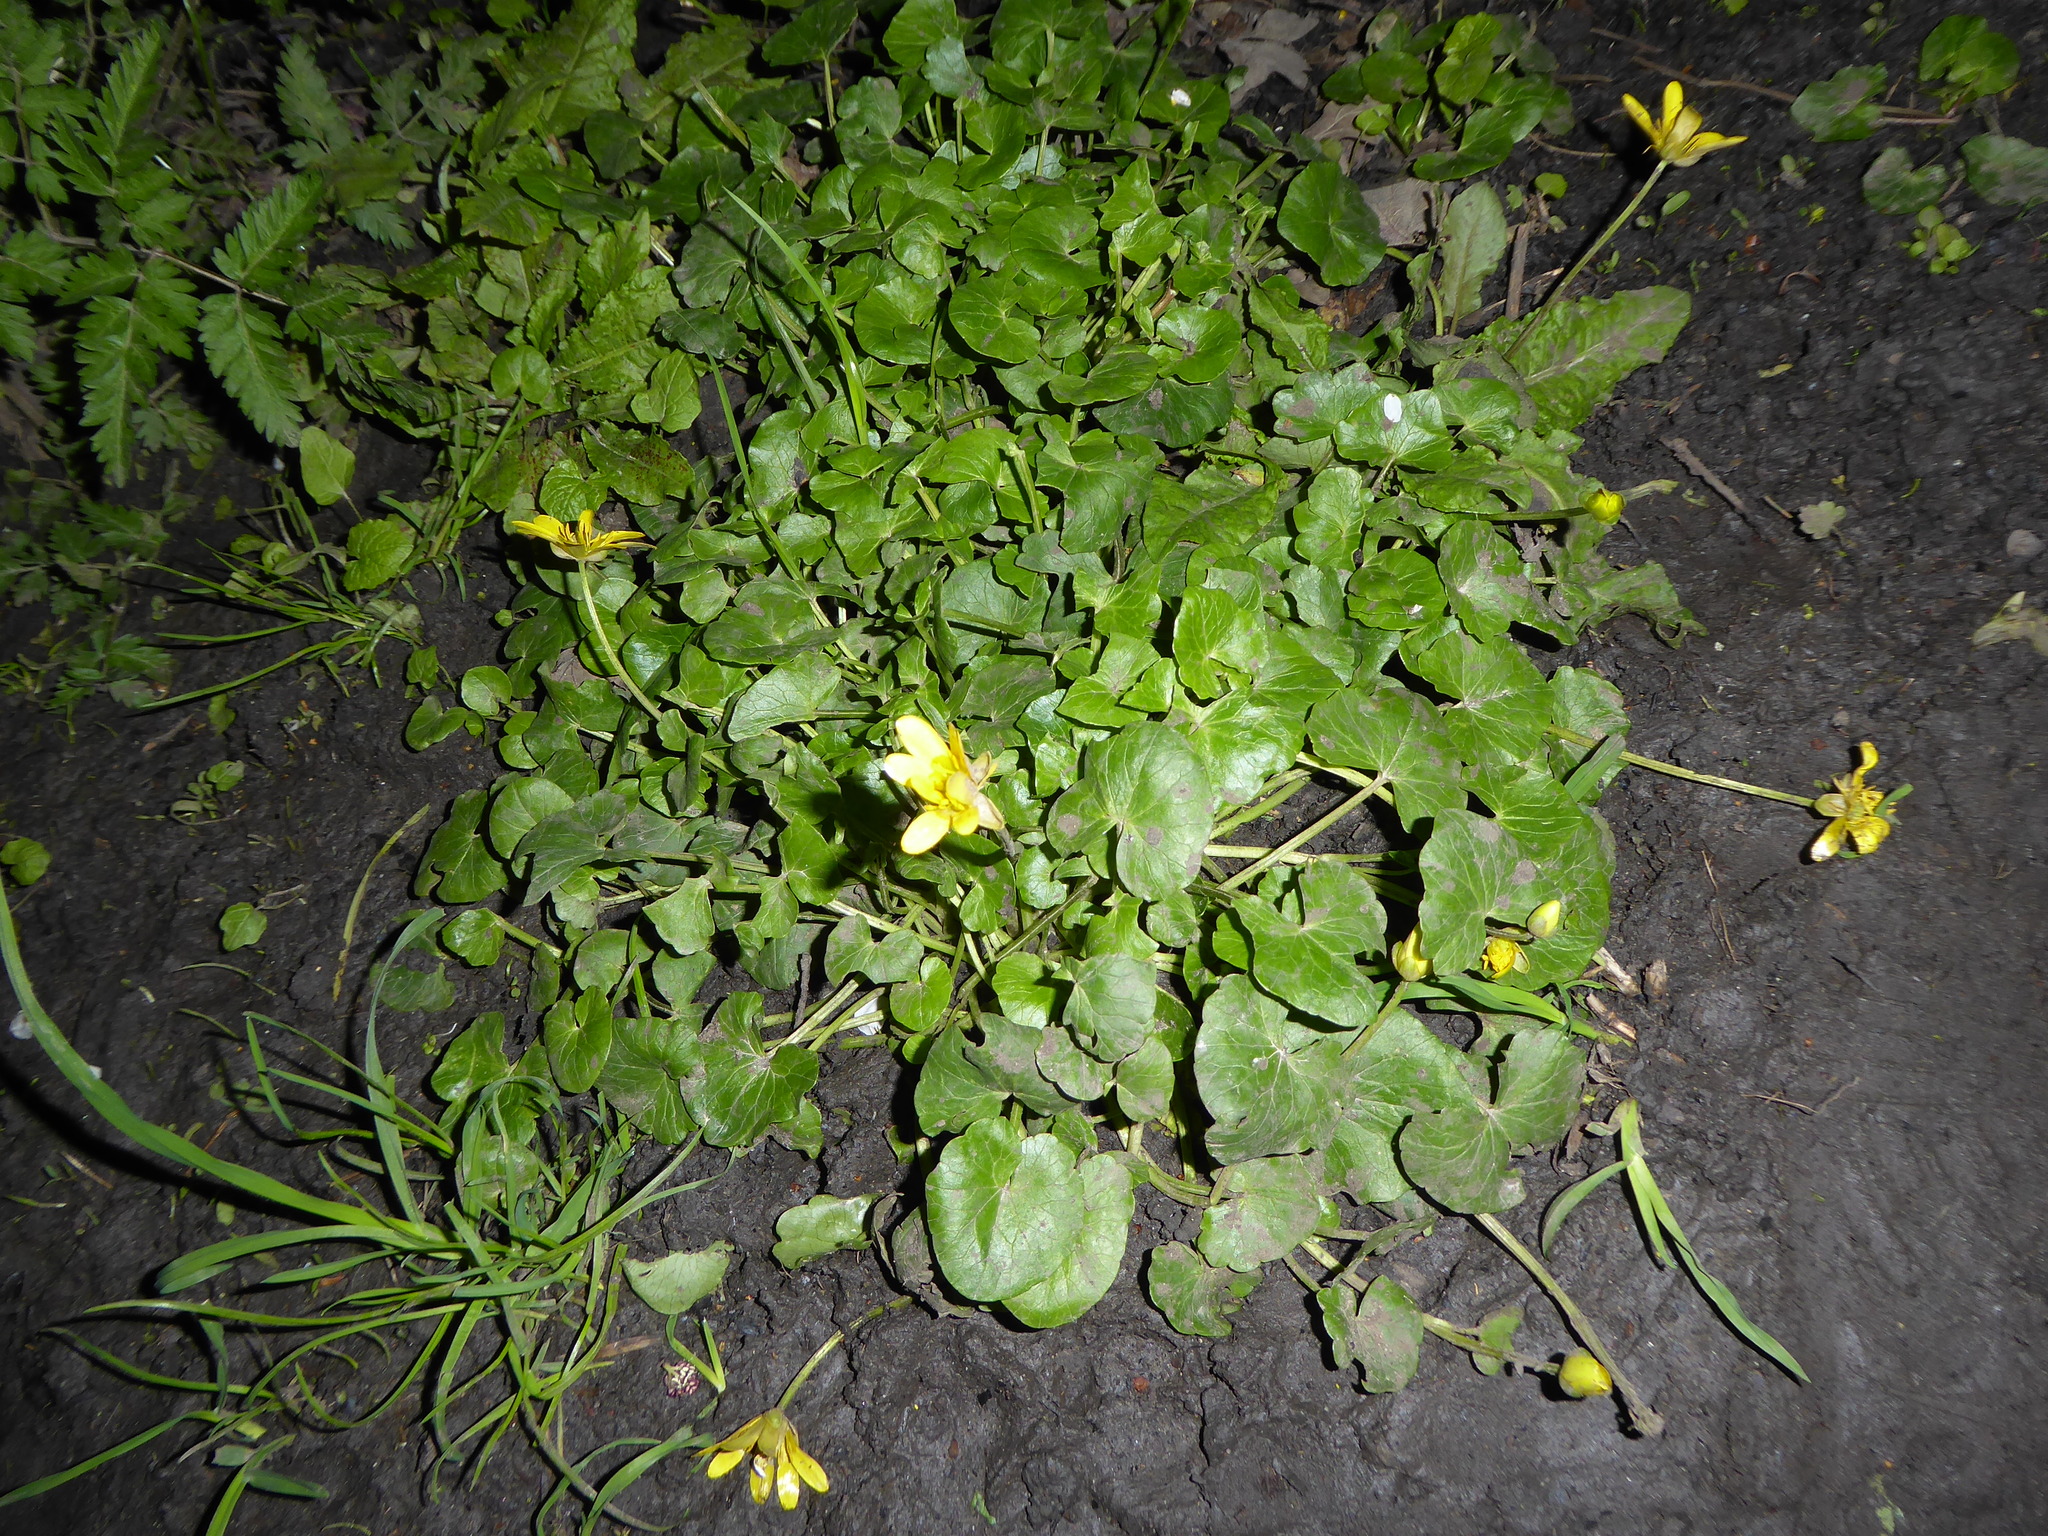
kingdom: Plantae
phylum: Tracheophyta
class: Magnoliopsida
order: Ranunculales
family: Ranunculaceae
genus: Ficaria
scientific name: Ficaria verna
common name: Lesser celandine
